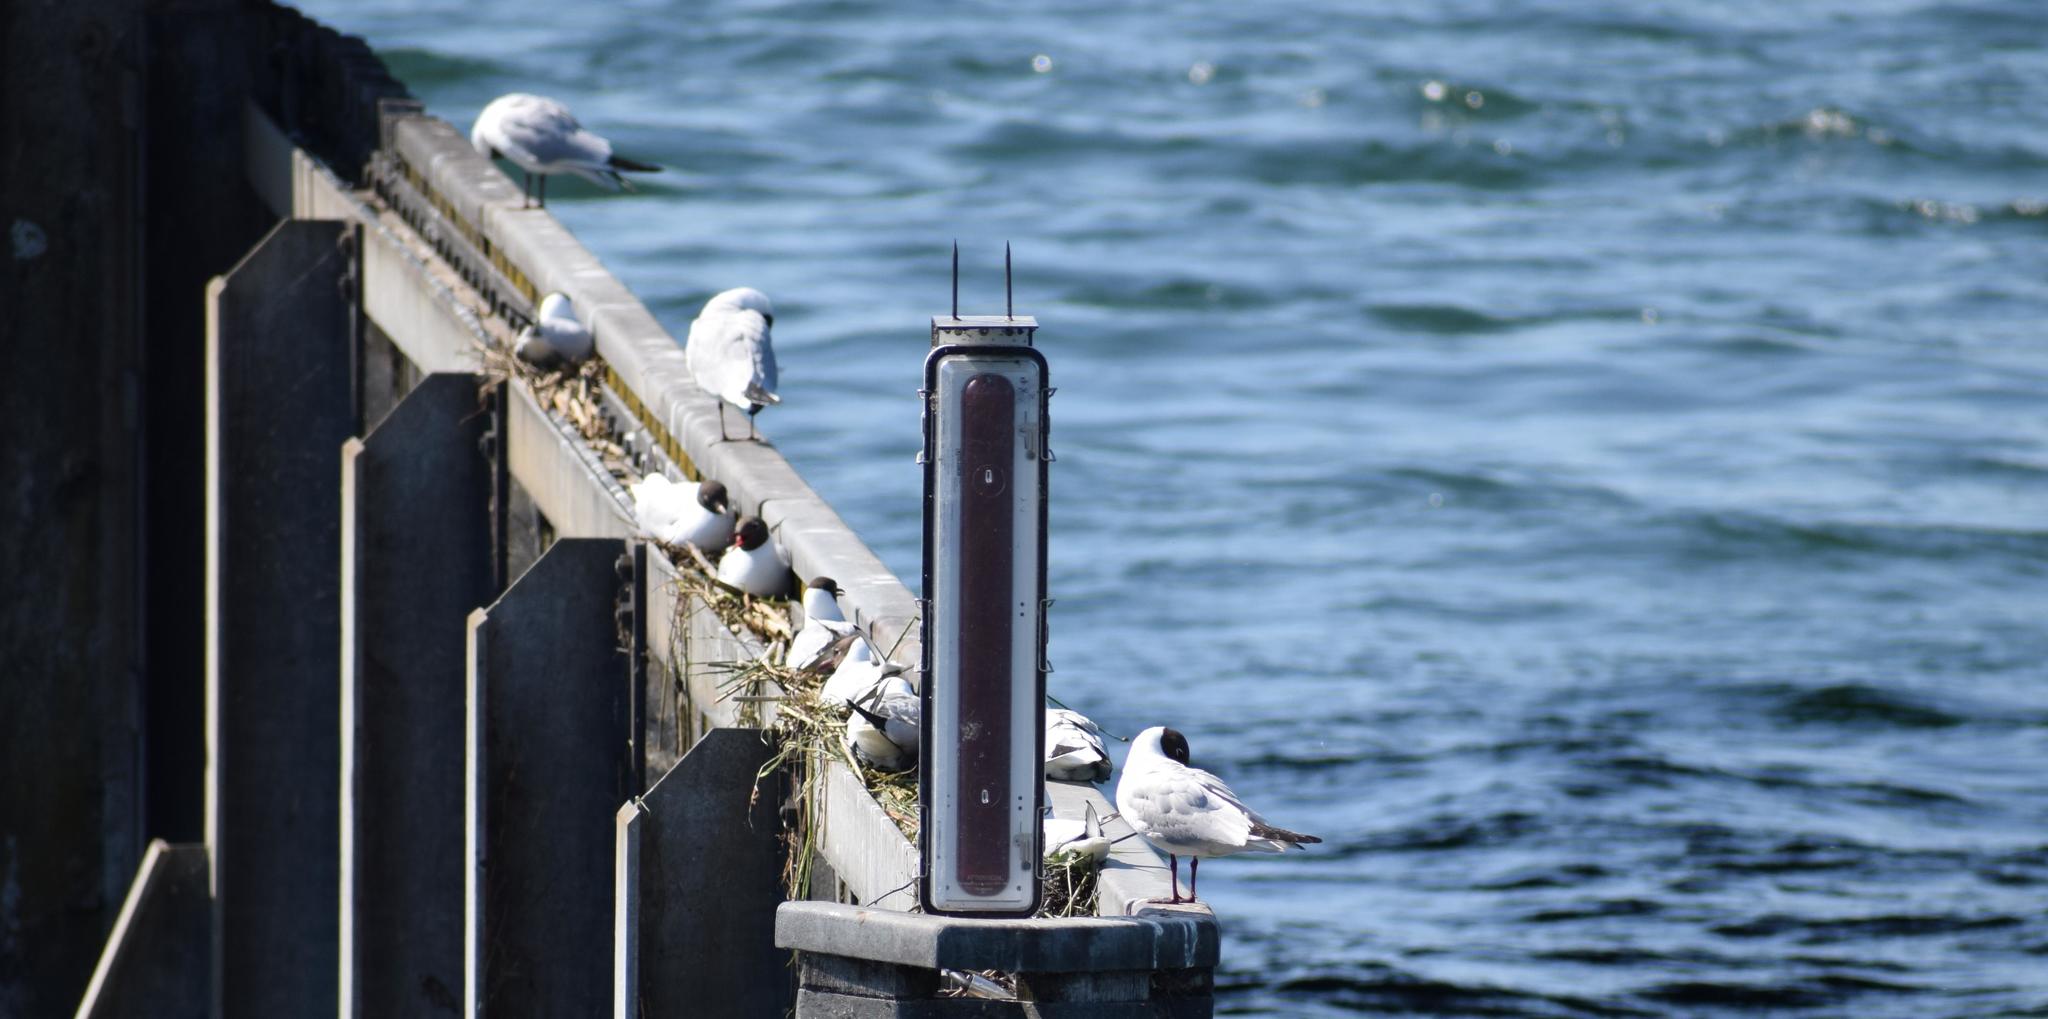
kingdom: Animalia
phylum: Chordata
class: Aves
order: Charadriiformes
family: Laridae
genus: Chroicocephalus
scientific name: Chroicocephalus ridibundus
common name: Black-headed gull
